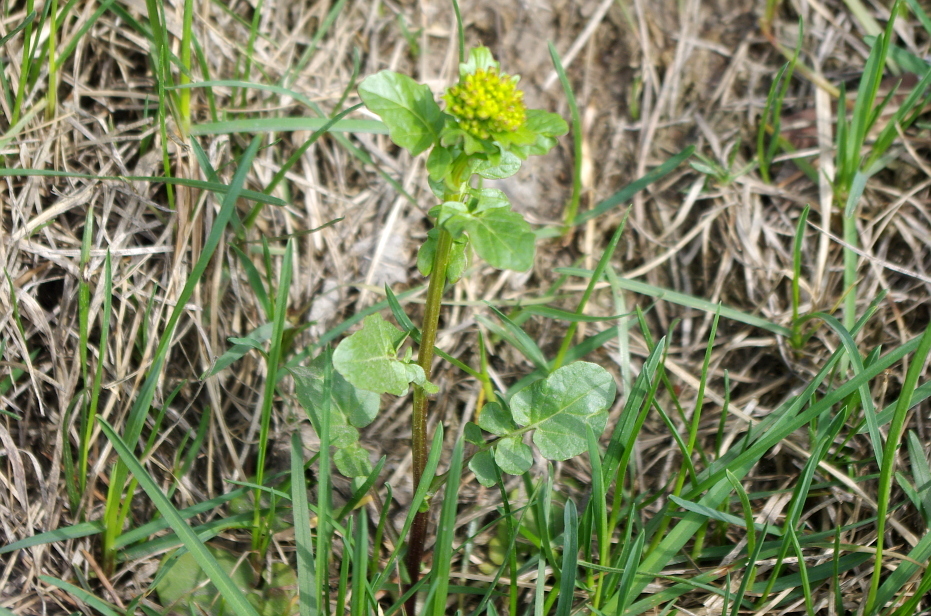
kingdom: Plantae
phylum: Tracheophyta
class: Magnoliopsida
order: Brassicales
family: Brassicaceae
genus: Barbarea
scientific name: Barbarea vulgaris
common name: Cressy-greens
